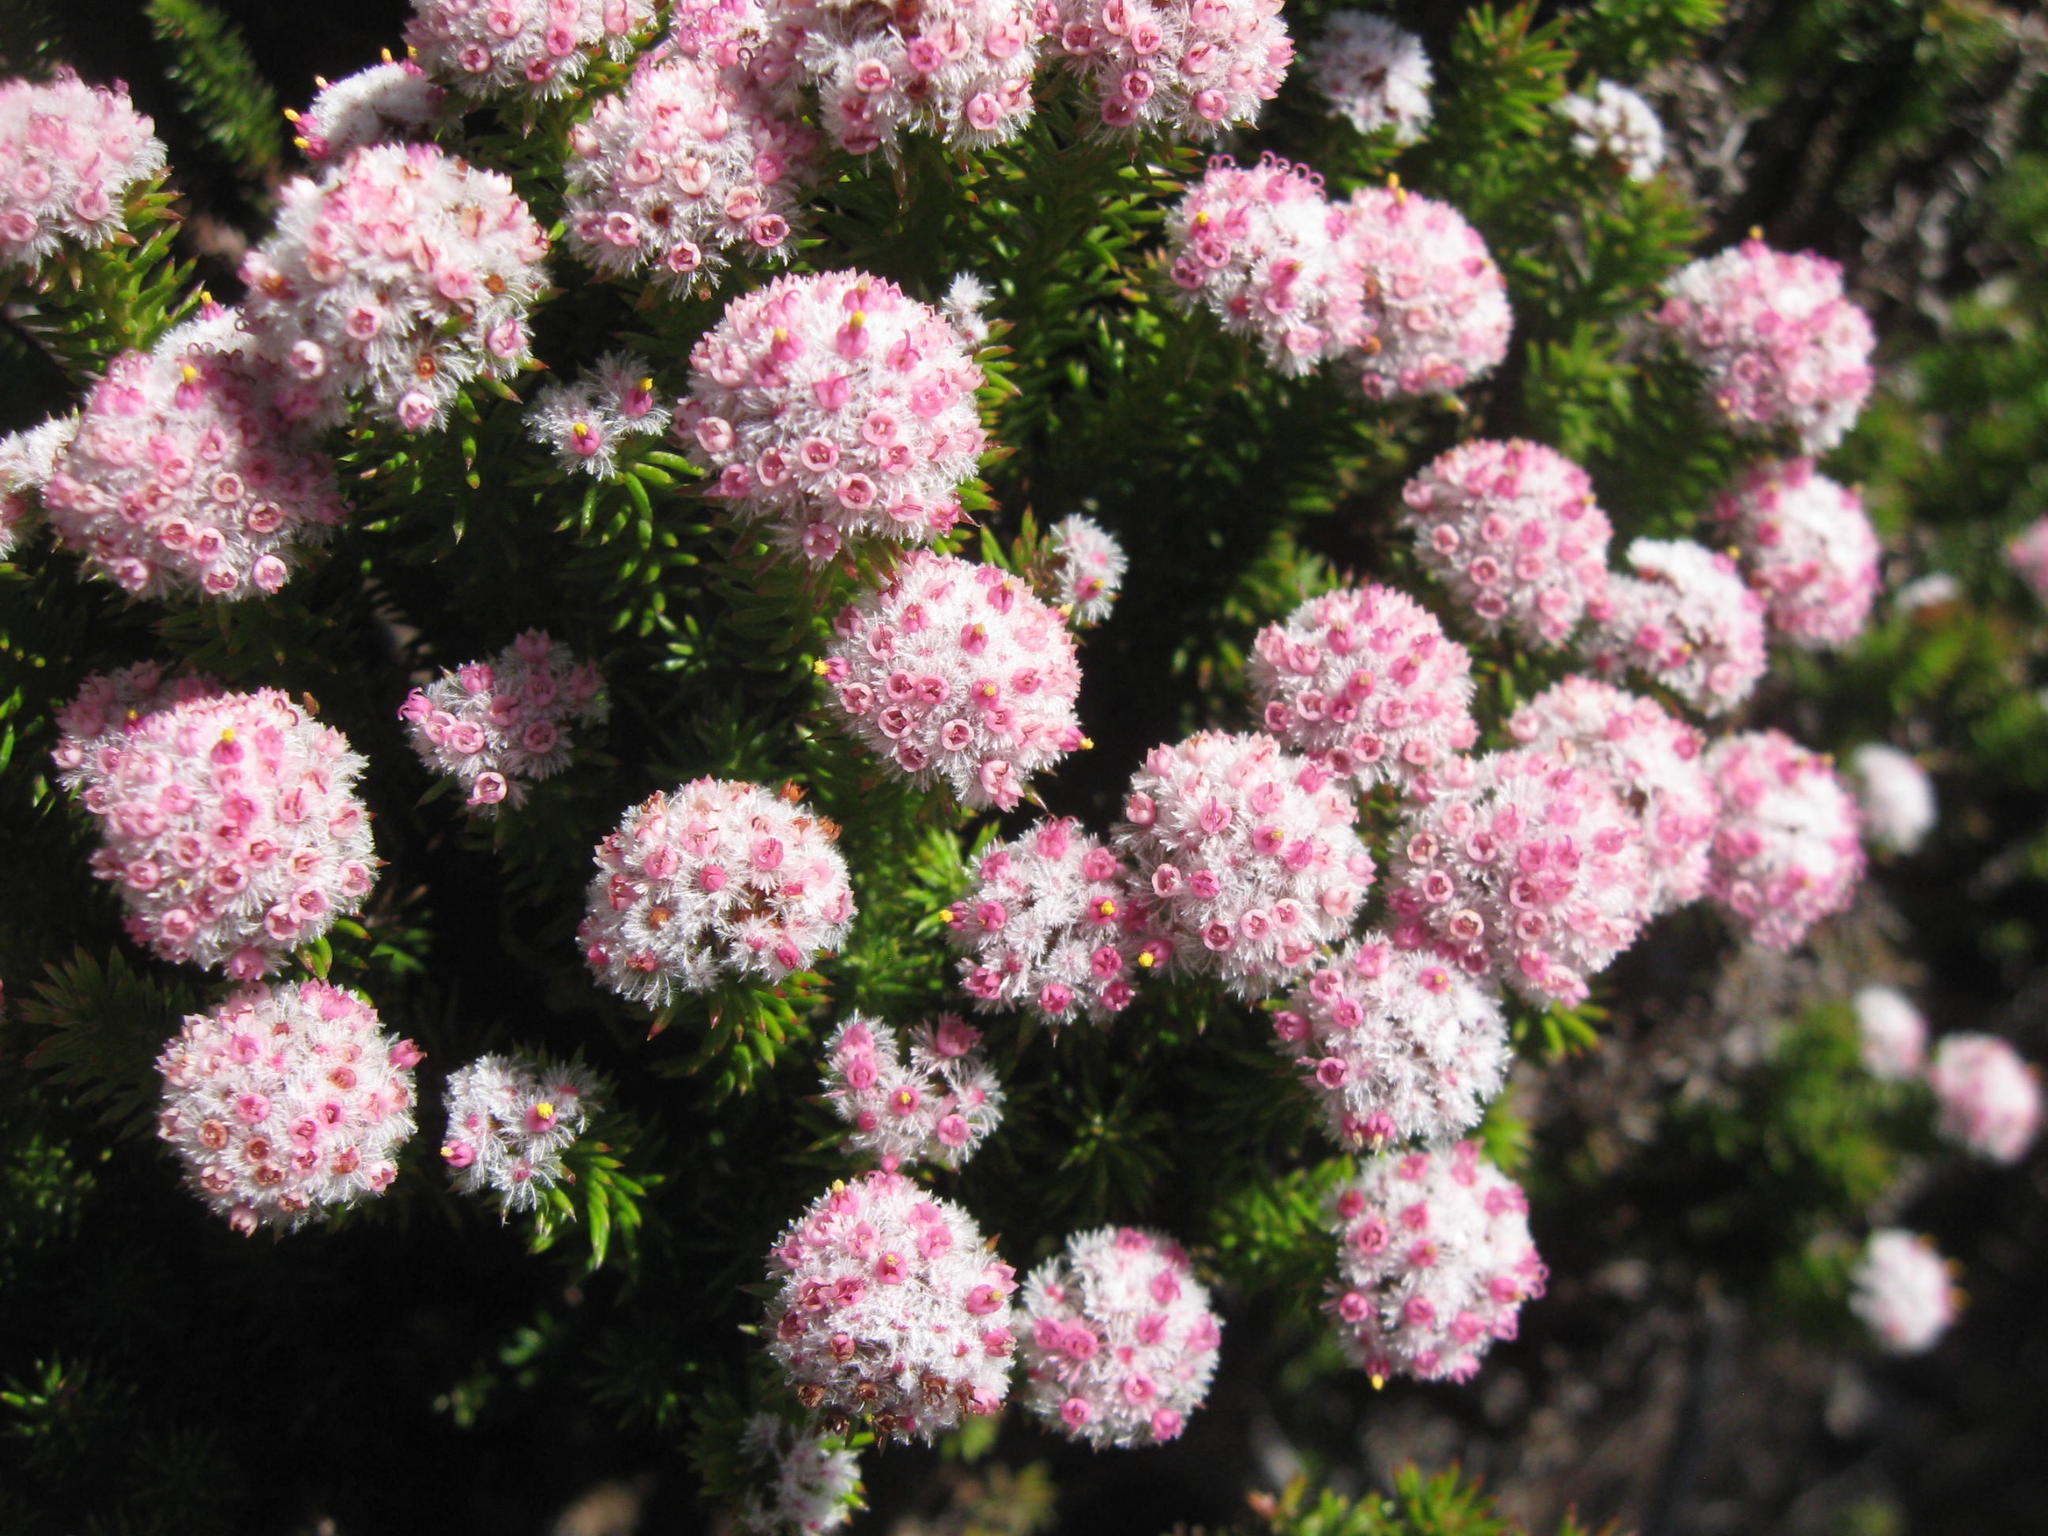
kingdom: Plantae
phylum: Tracheophyta
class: Magnoliopsida
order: Asterales
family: Asteraceae
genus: Stoebe
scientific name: Stoebe rosea
